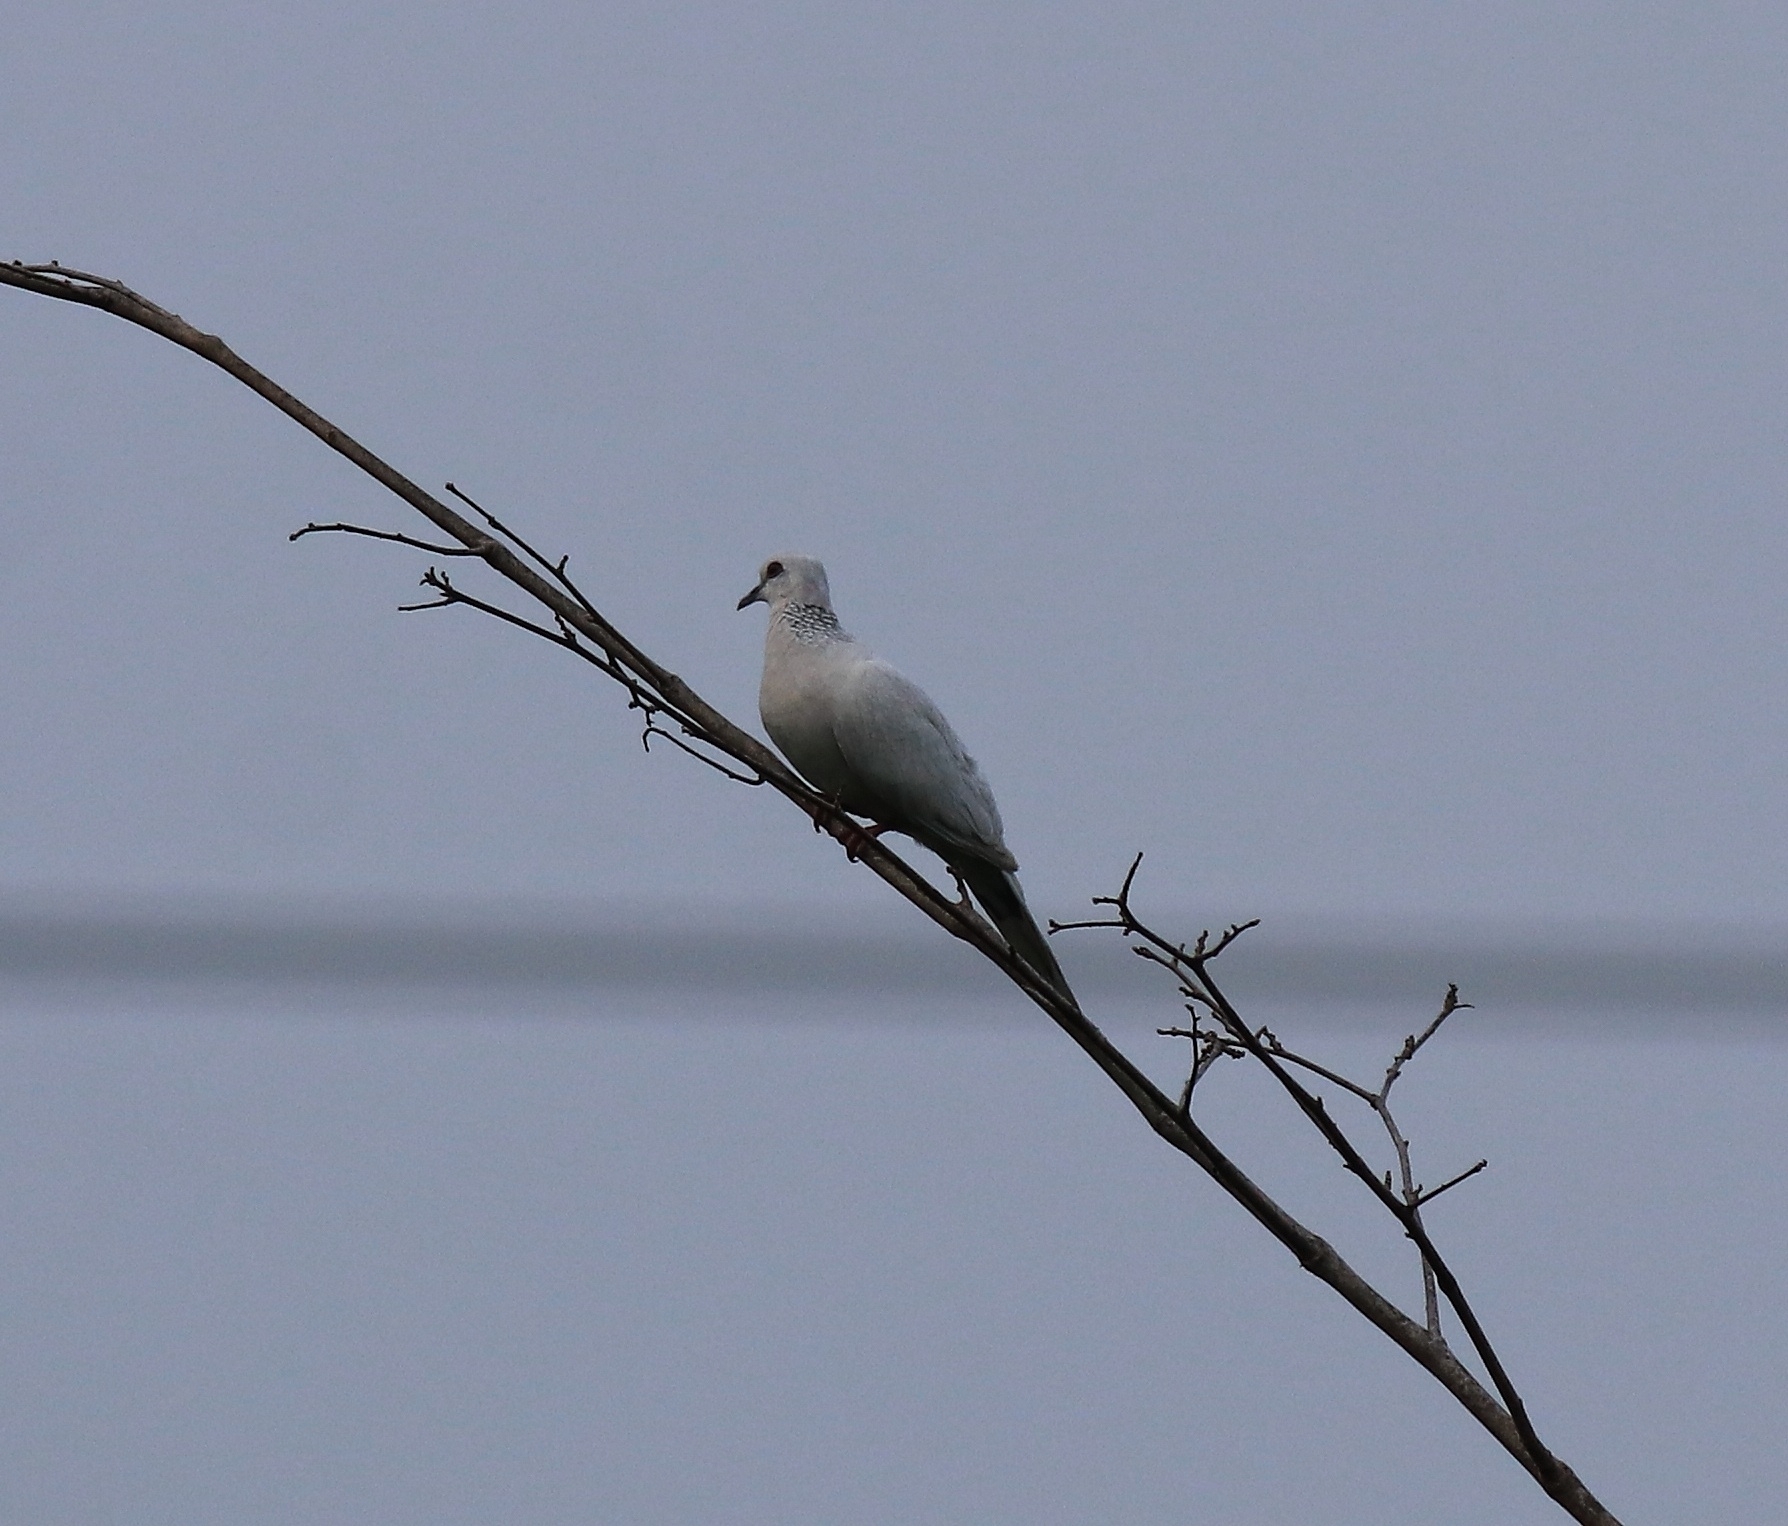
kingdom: Animalia
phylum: Chordata
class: Aves
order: Columbiformes
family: Columbidae
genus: Spilopelia
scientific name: Spilopelia chinensis
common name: Spotted dove
